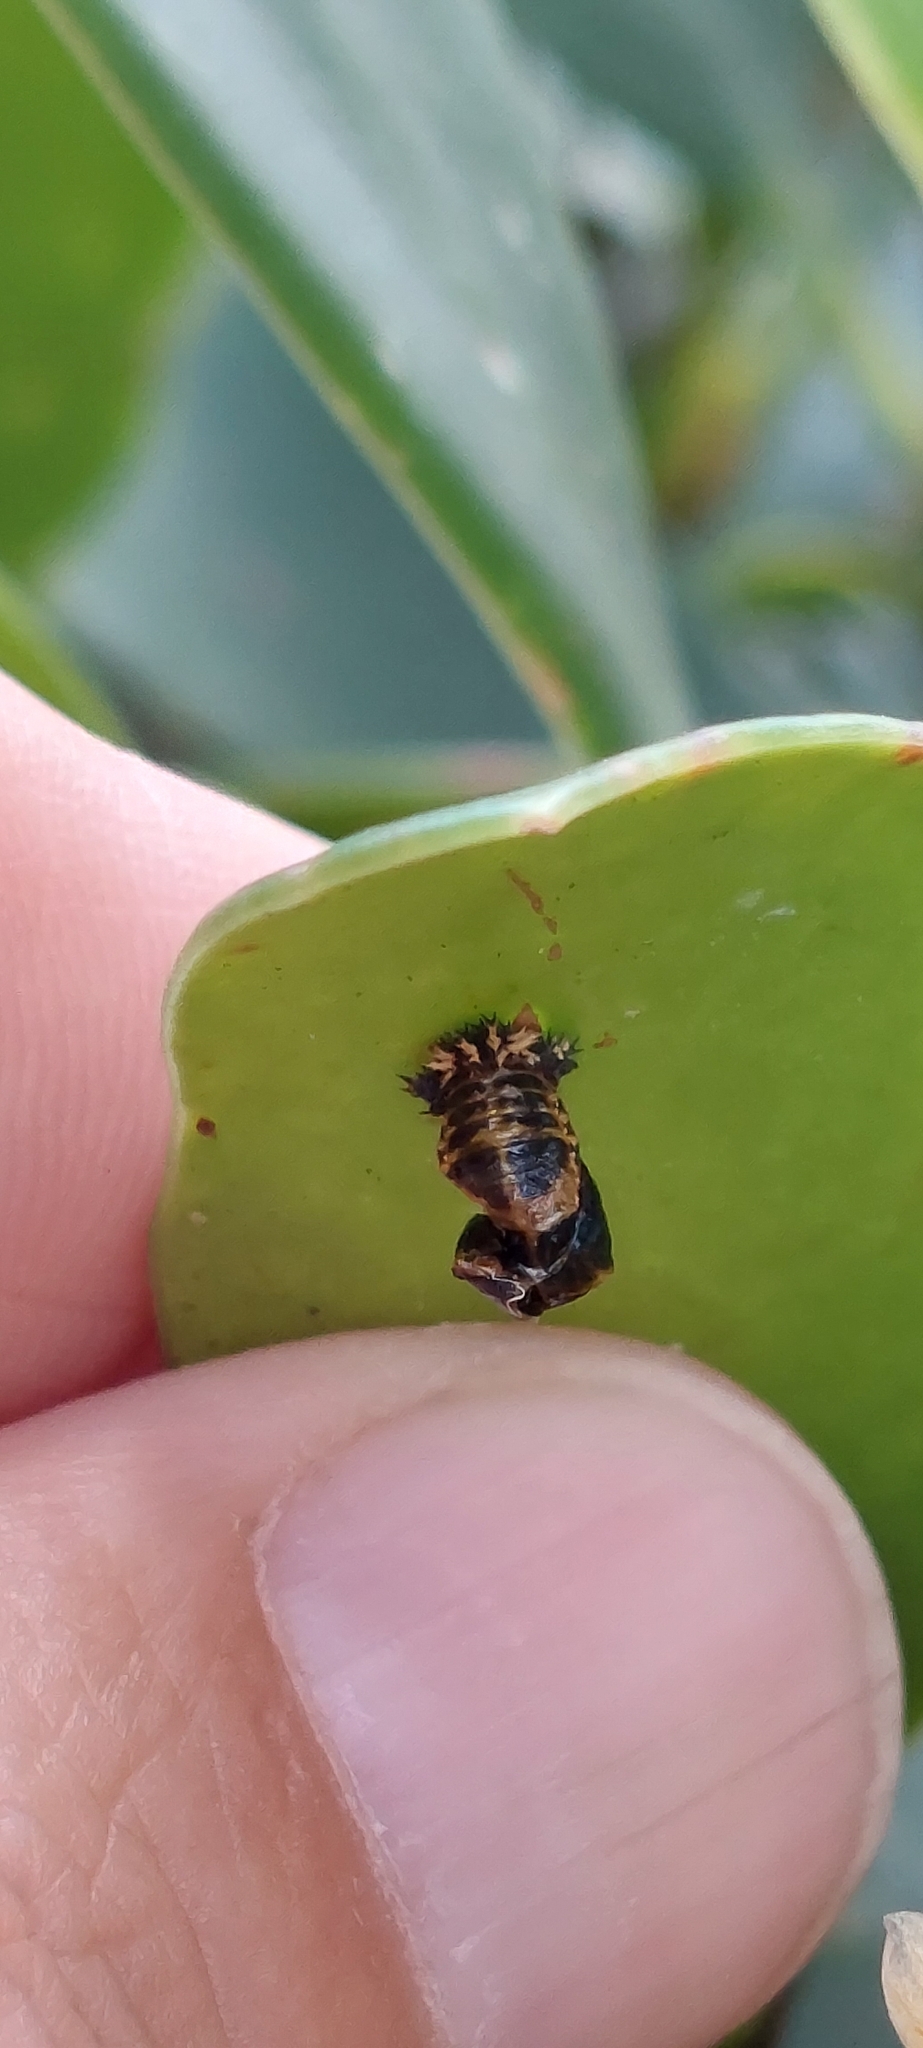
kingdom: Animalia
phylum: Arthropoda
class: Insecta
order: Coleoptera
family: Coccinellidae
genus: Harmonia
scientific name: Harmonia axyridis
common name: Harlequin ladybird
